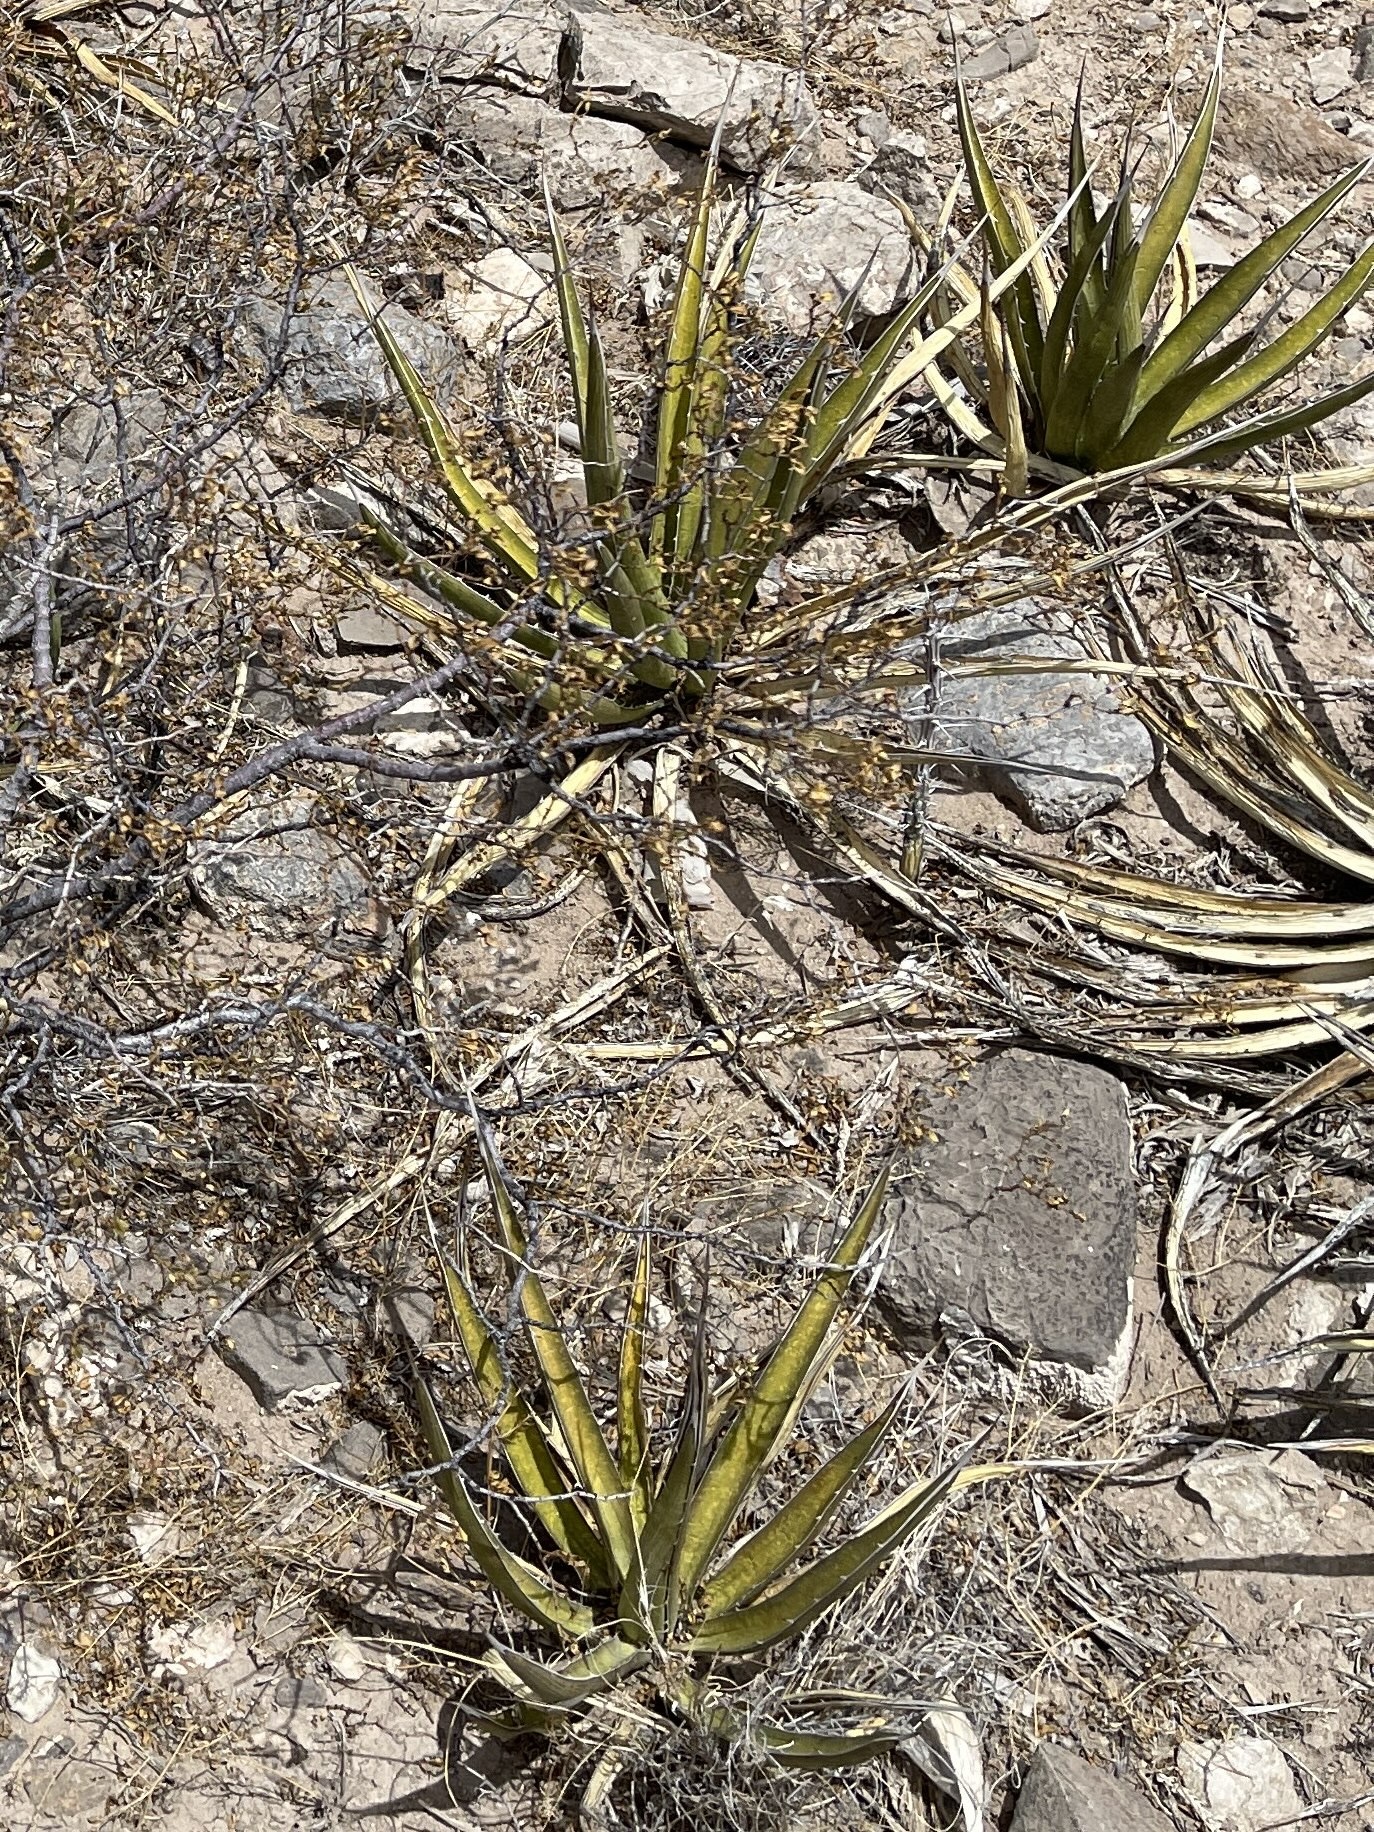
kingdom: Plantae
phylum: Tracheophyta
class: Liliopsida
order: Asparagales
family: Asparagaceae
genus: Agave
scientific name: Agave lechuguilla
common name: Lecheguilla agave
